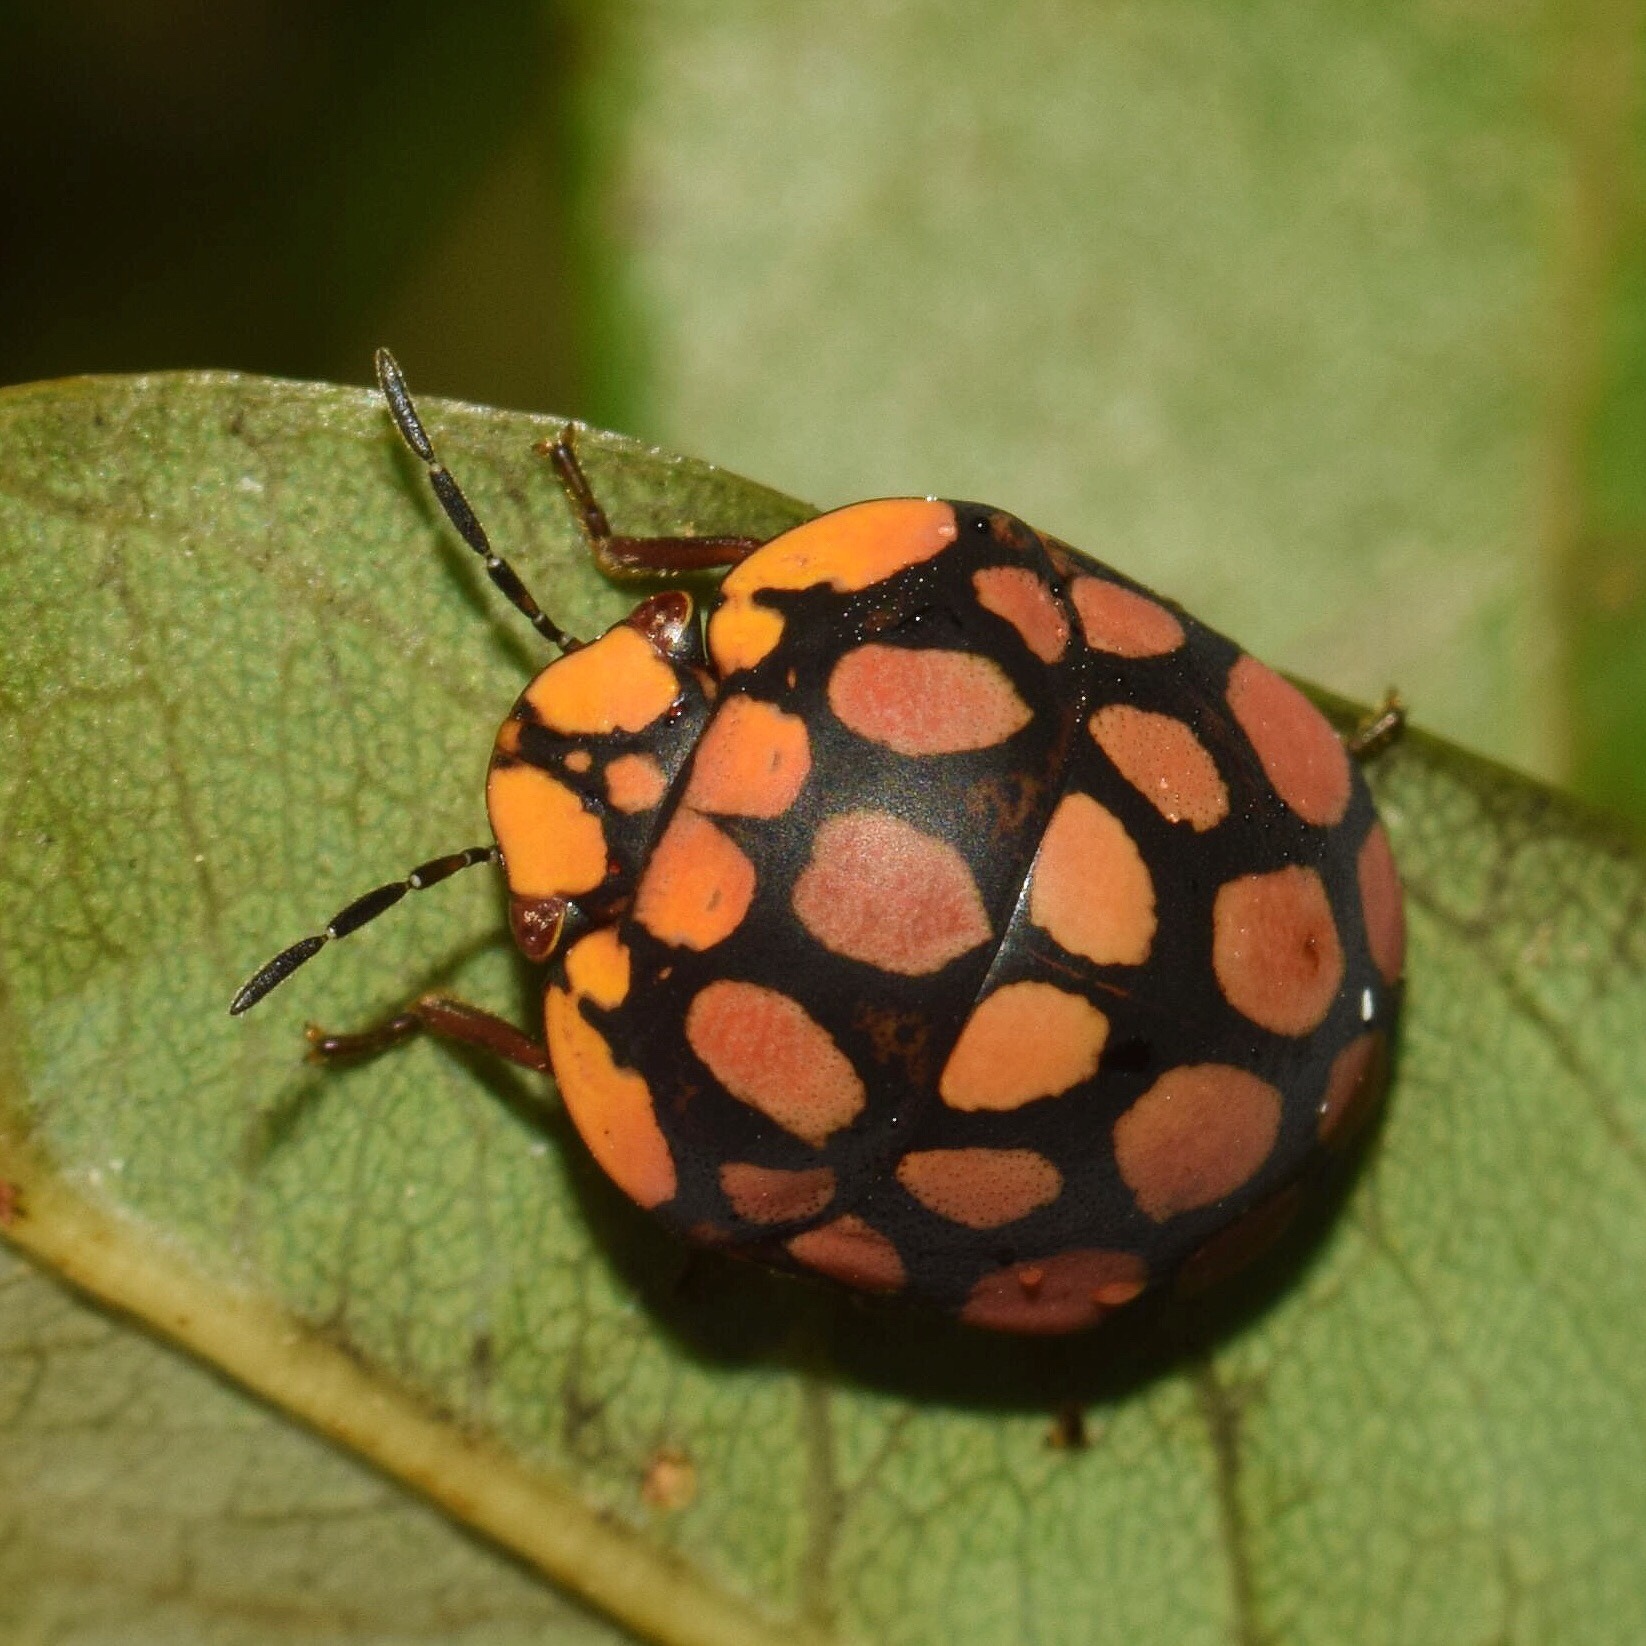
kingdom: Animalia
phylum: Arthropoda
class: Insecta
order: Hemiptera
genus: Steganocerus
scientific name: Steganocerus multipunctatus
